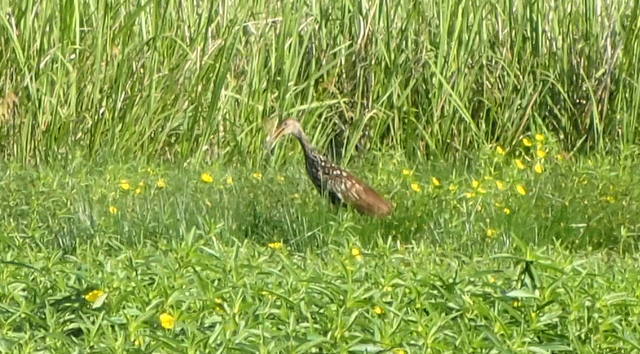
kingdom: Animalia
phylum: Chordata
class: Aves
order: Gruiformes
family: Aramidae
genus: Aramus
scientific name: Aramus guarauna
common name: Limpkin
